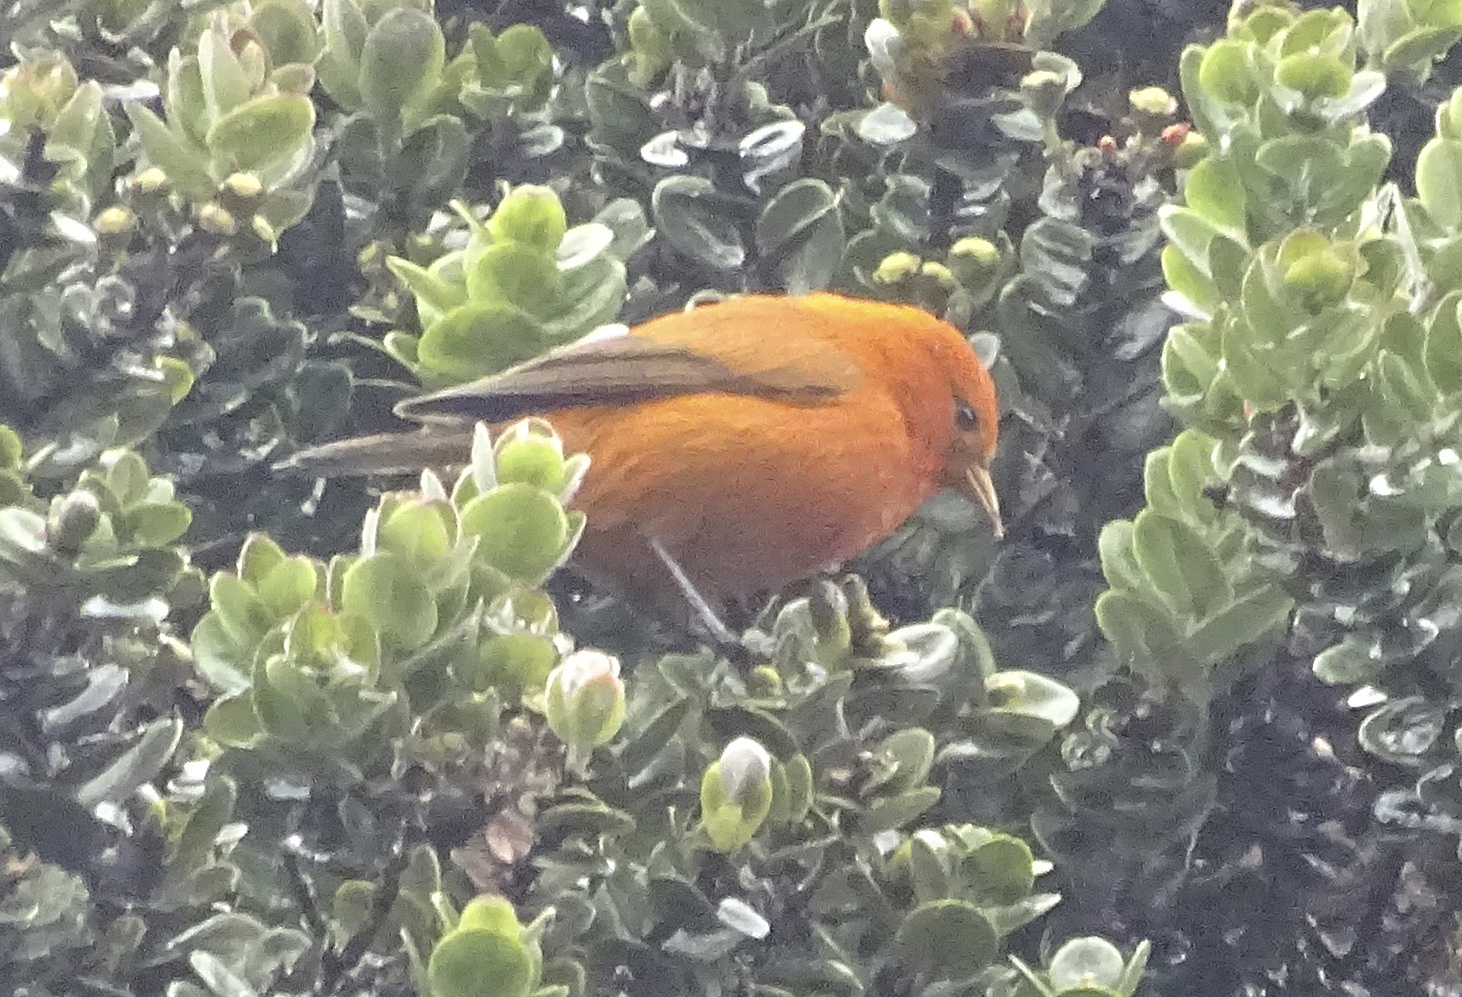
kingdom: Animalia
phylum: Chordata
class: Aves
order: Passeriformes
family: Fringillidae
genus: Loxops
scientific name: Loxops coccineus
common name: Hawaii akepa
